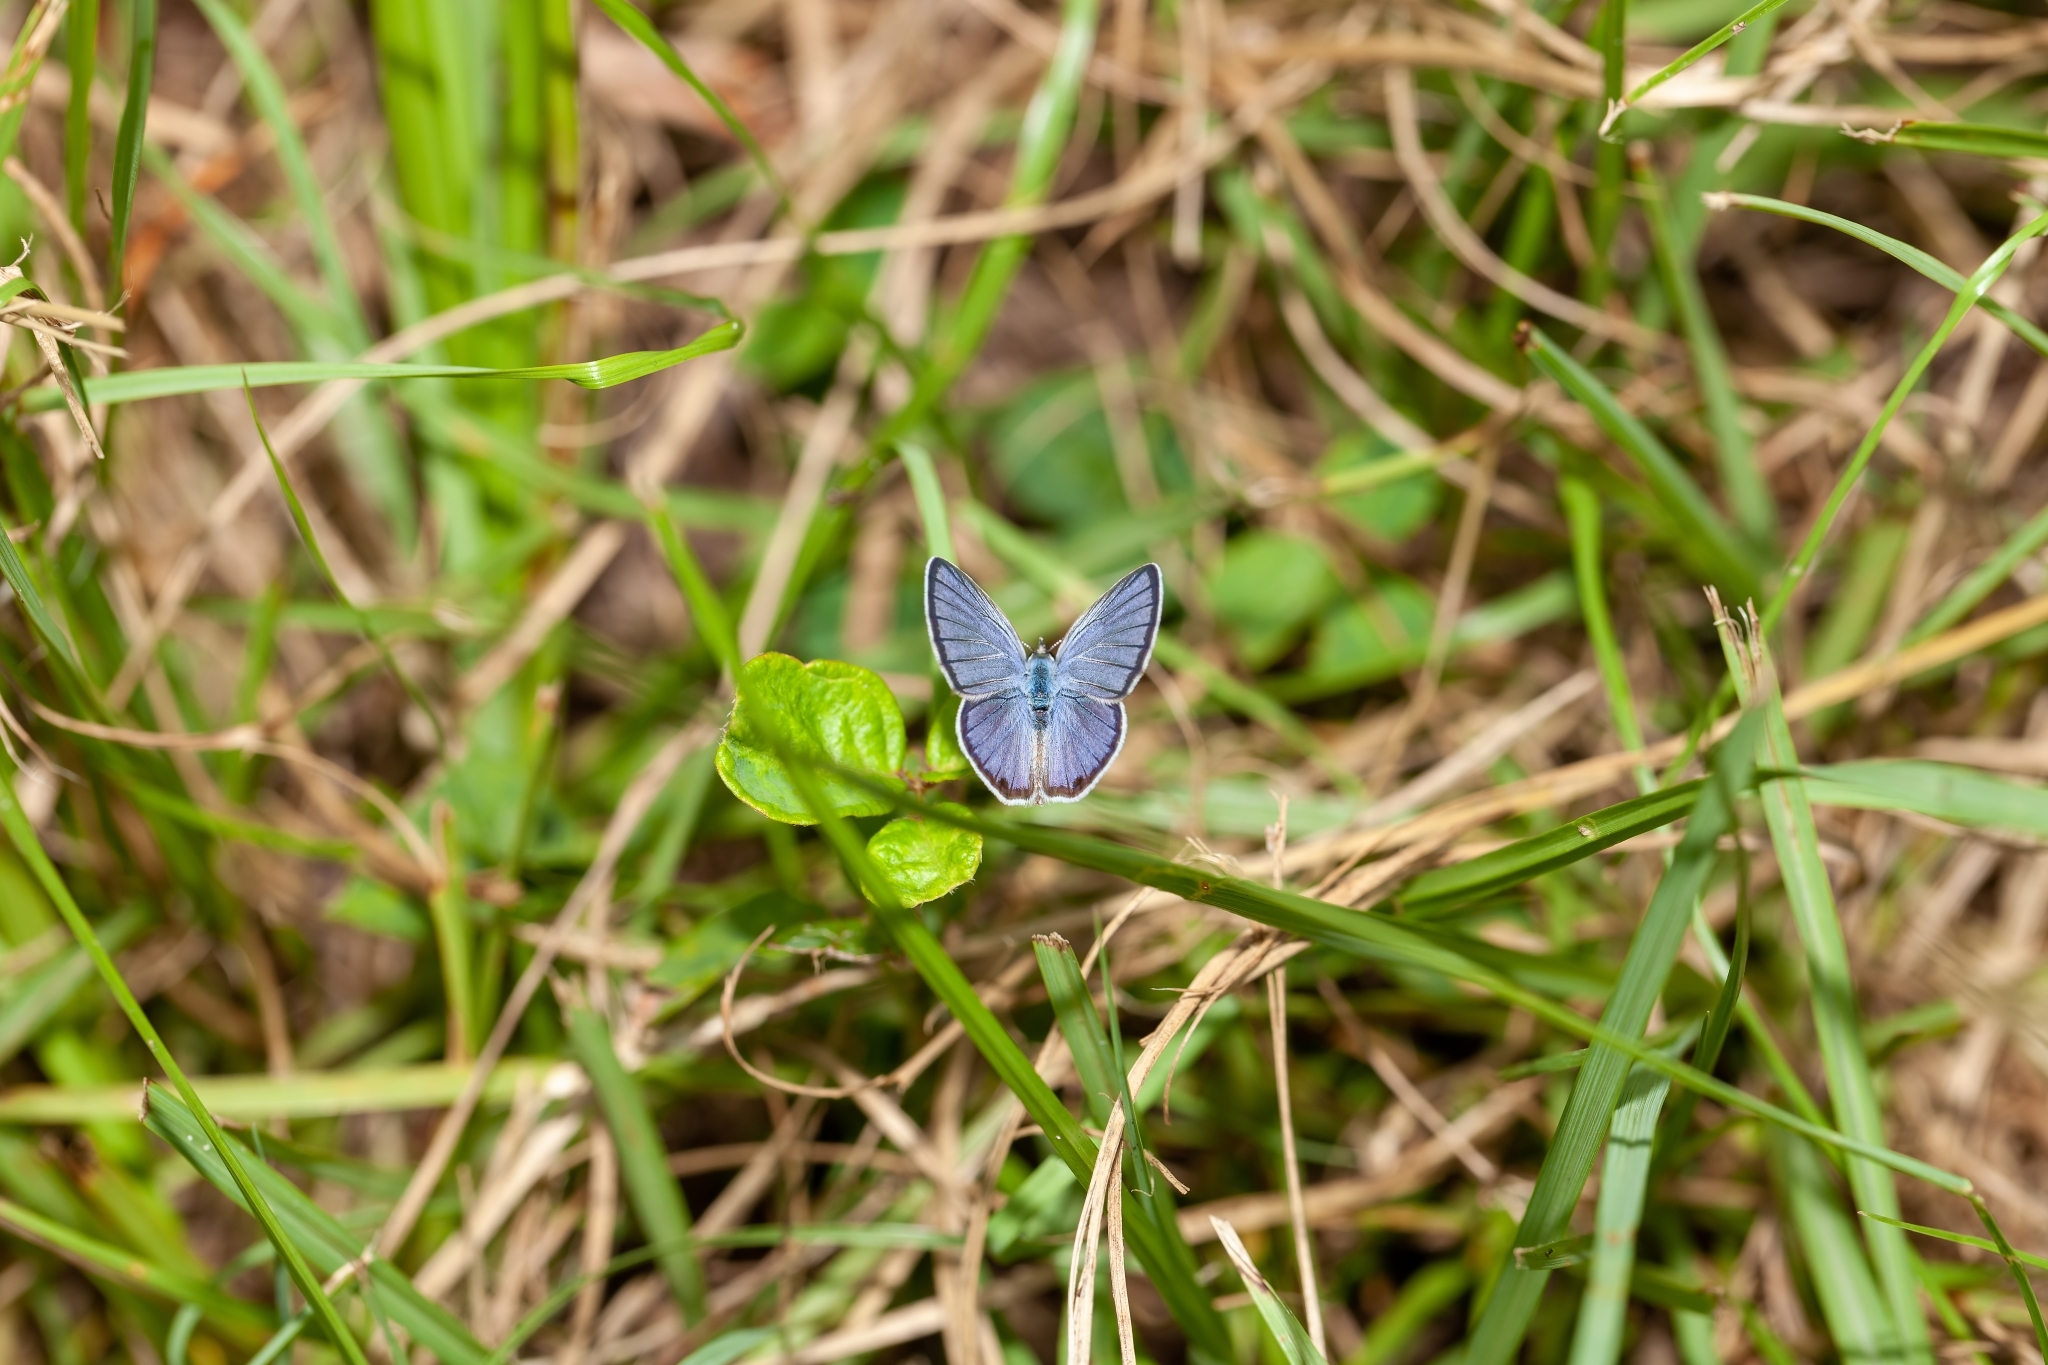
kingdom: Animalia
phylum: Arthropoda
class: Insecta
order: Lepidoptera
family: Lycaenidae
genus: Hemiargus
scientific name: Hemiargus ceraunus
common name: Ceraunus blue
